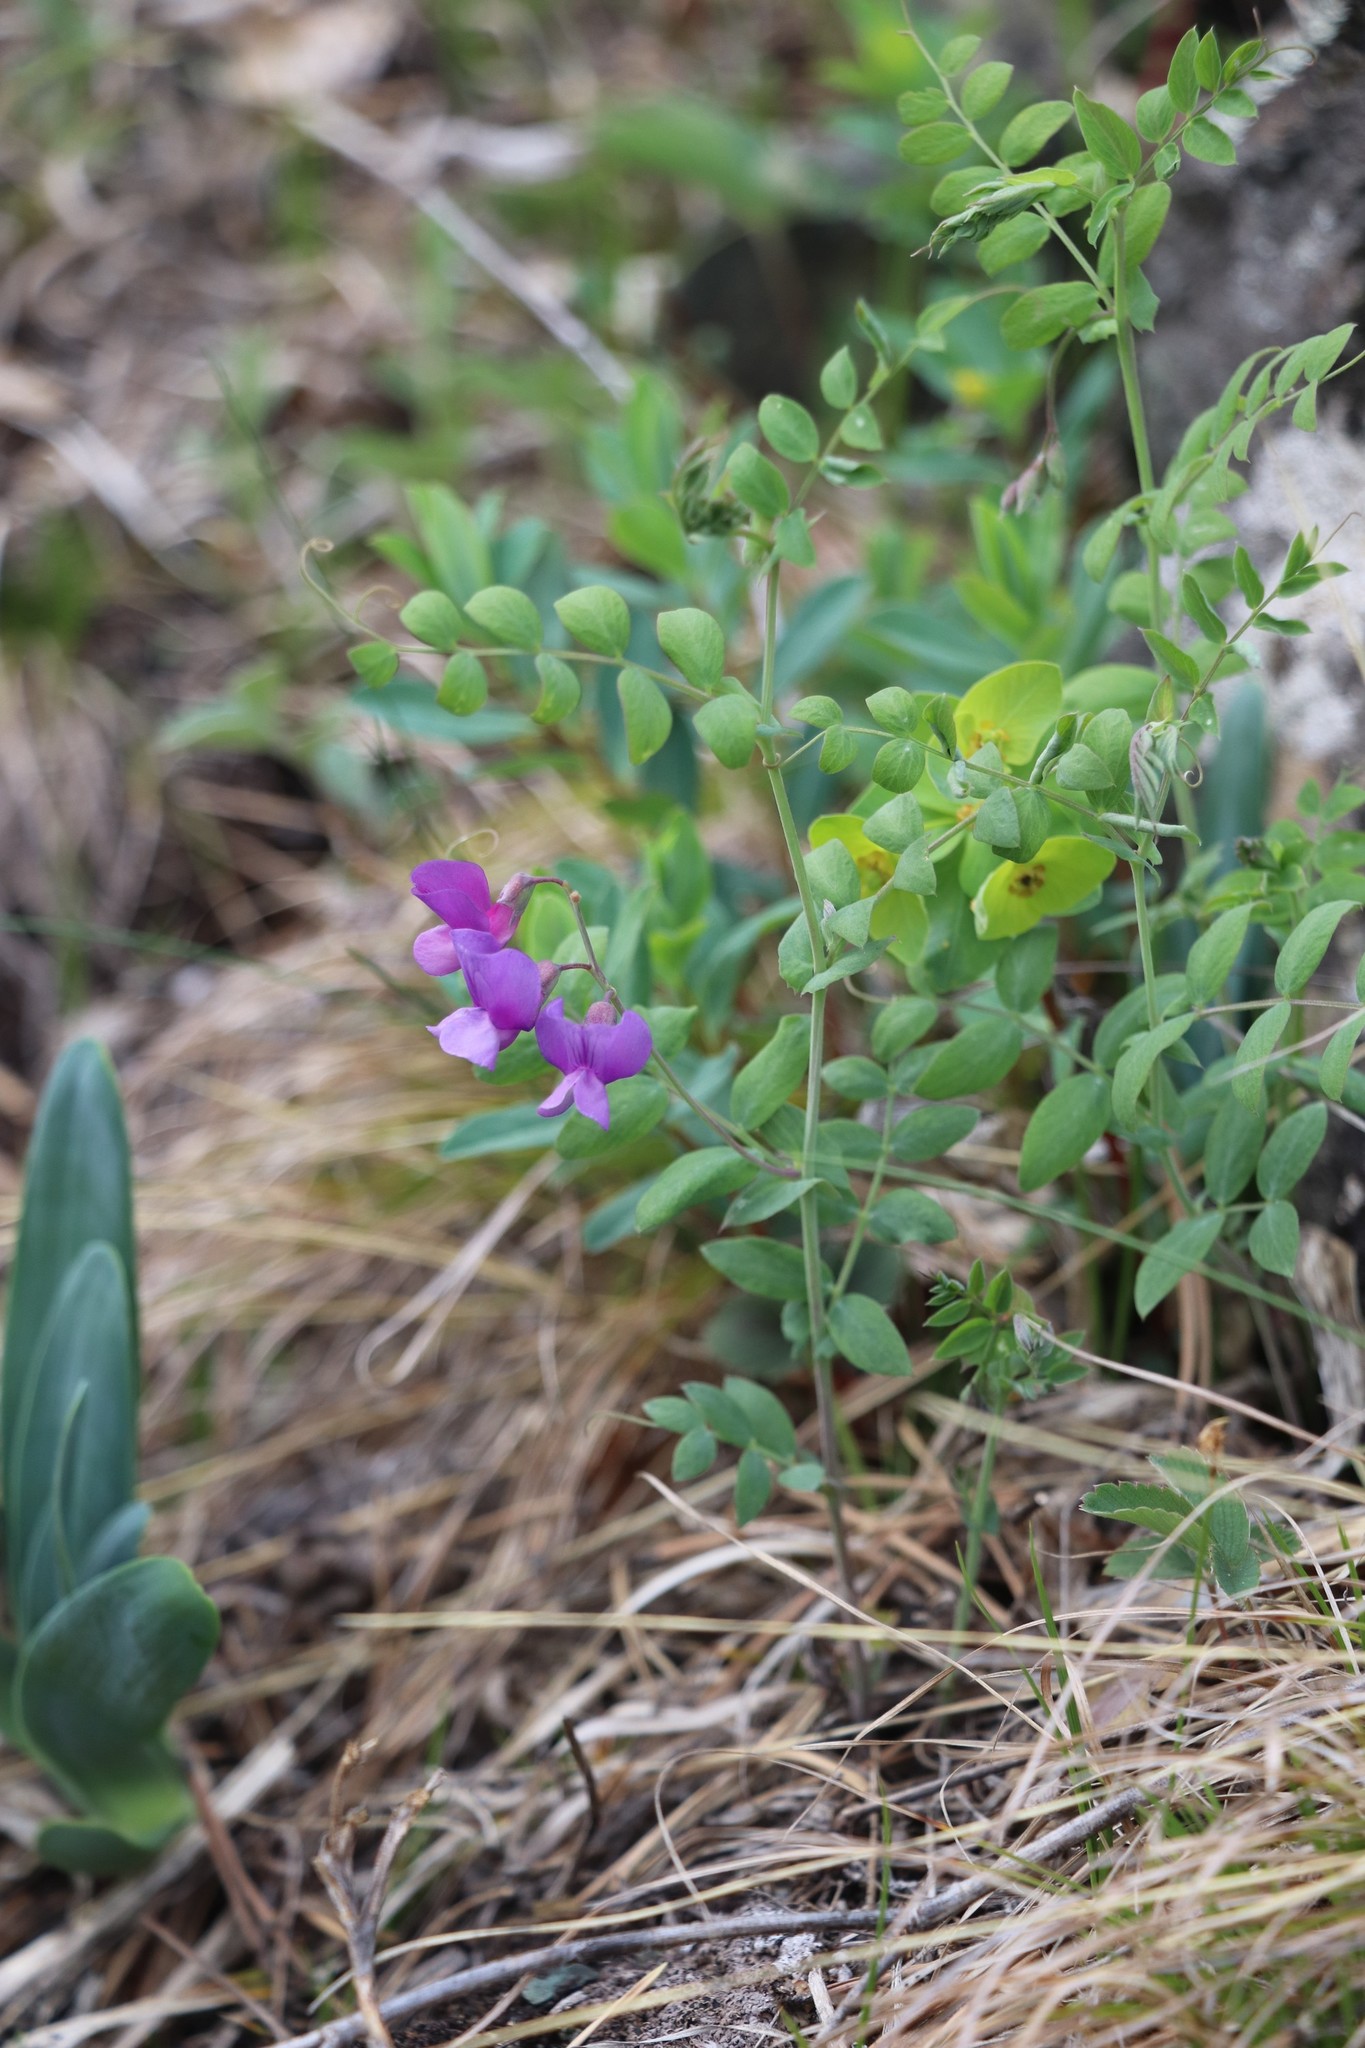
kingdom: Plantae
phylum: Tracheophyta
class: Magnoliopsida
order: Fabales
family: Fabaceae
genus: Lathyrus
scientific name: Lathyrus humilis
